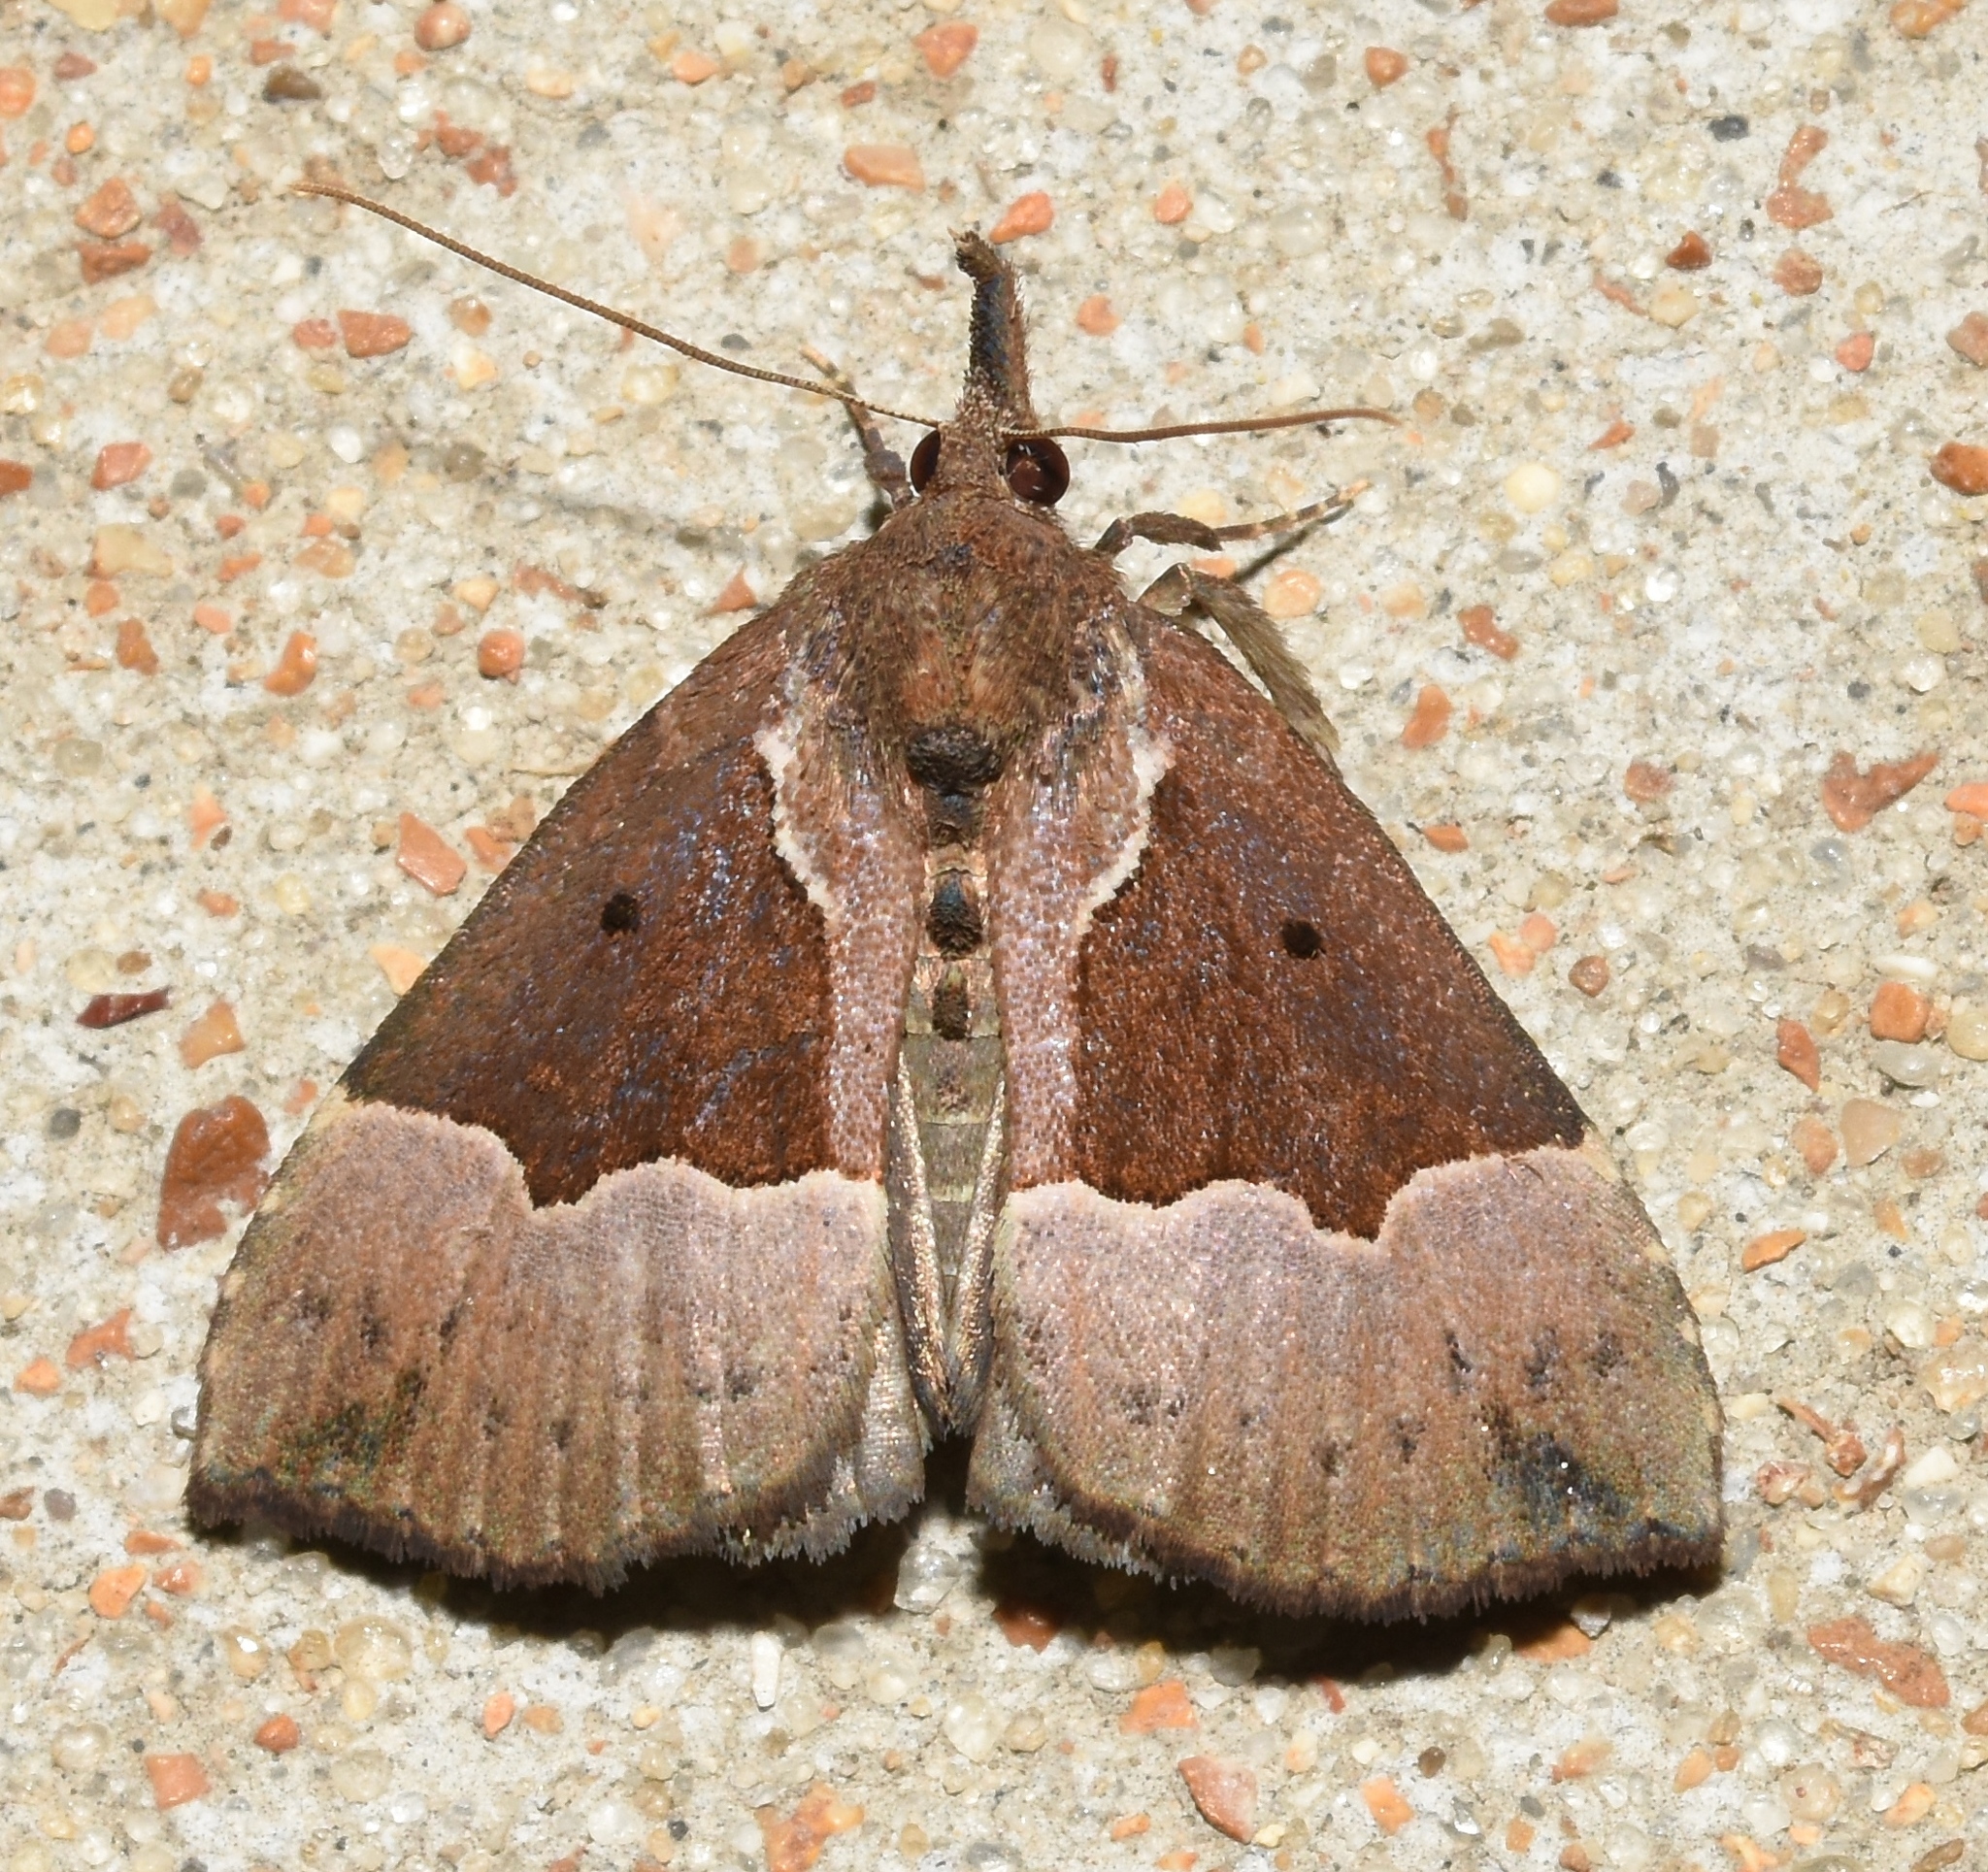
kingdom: Animalia
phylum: Arthropoda
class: Insecta
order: Lepidoptera
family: Erebidae
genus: Hypena
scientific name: Hypena bijugalis
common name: Dimorphic bomolocha moth
